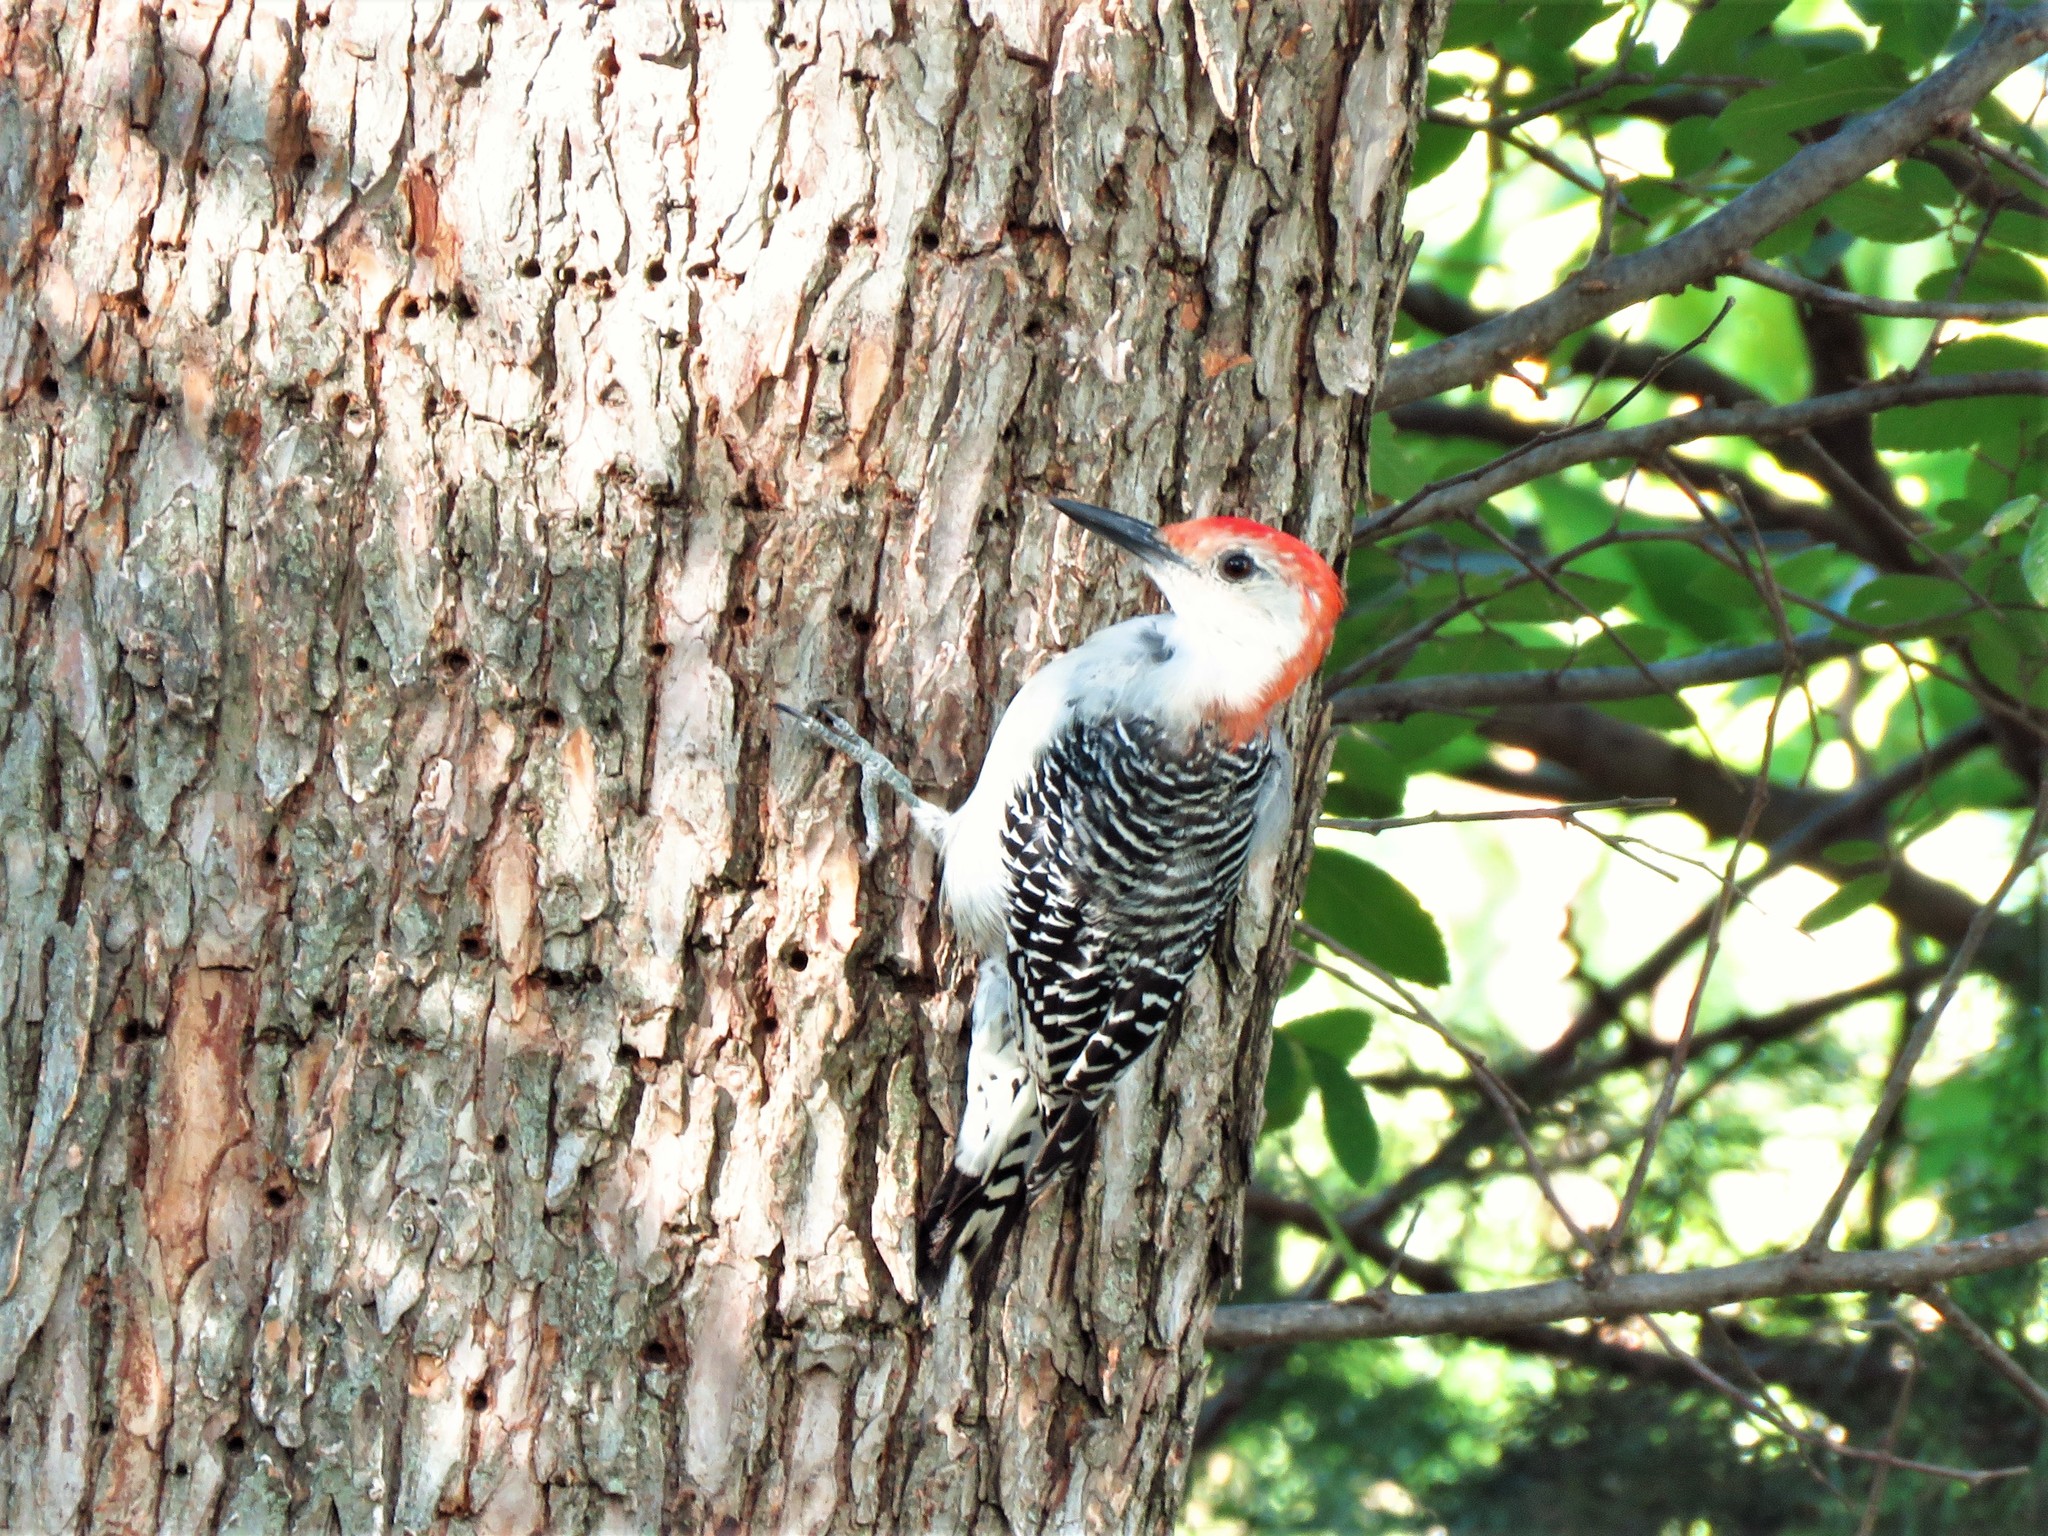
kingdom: Animalia
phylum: Chordata
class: Aves
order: Piciformes
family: Picidae
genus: Melanerpes
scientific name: Melanerpes carolinus
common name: Red-bellied woodpecker
